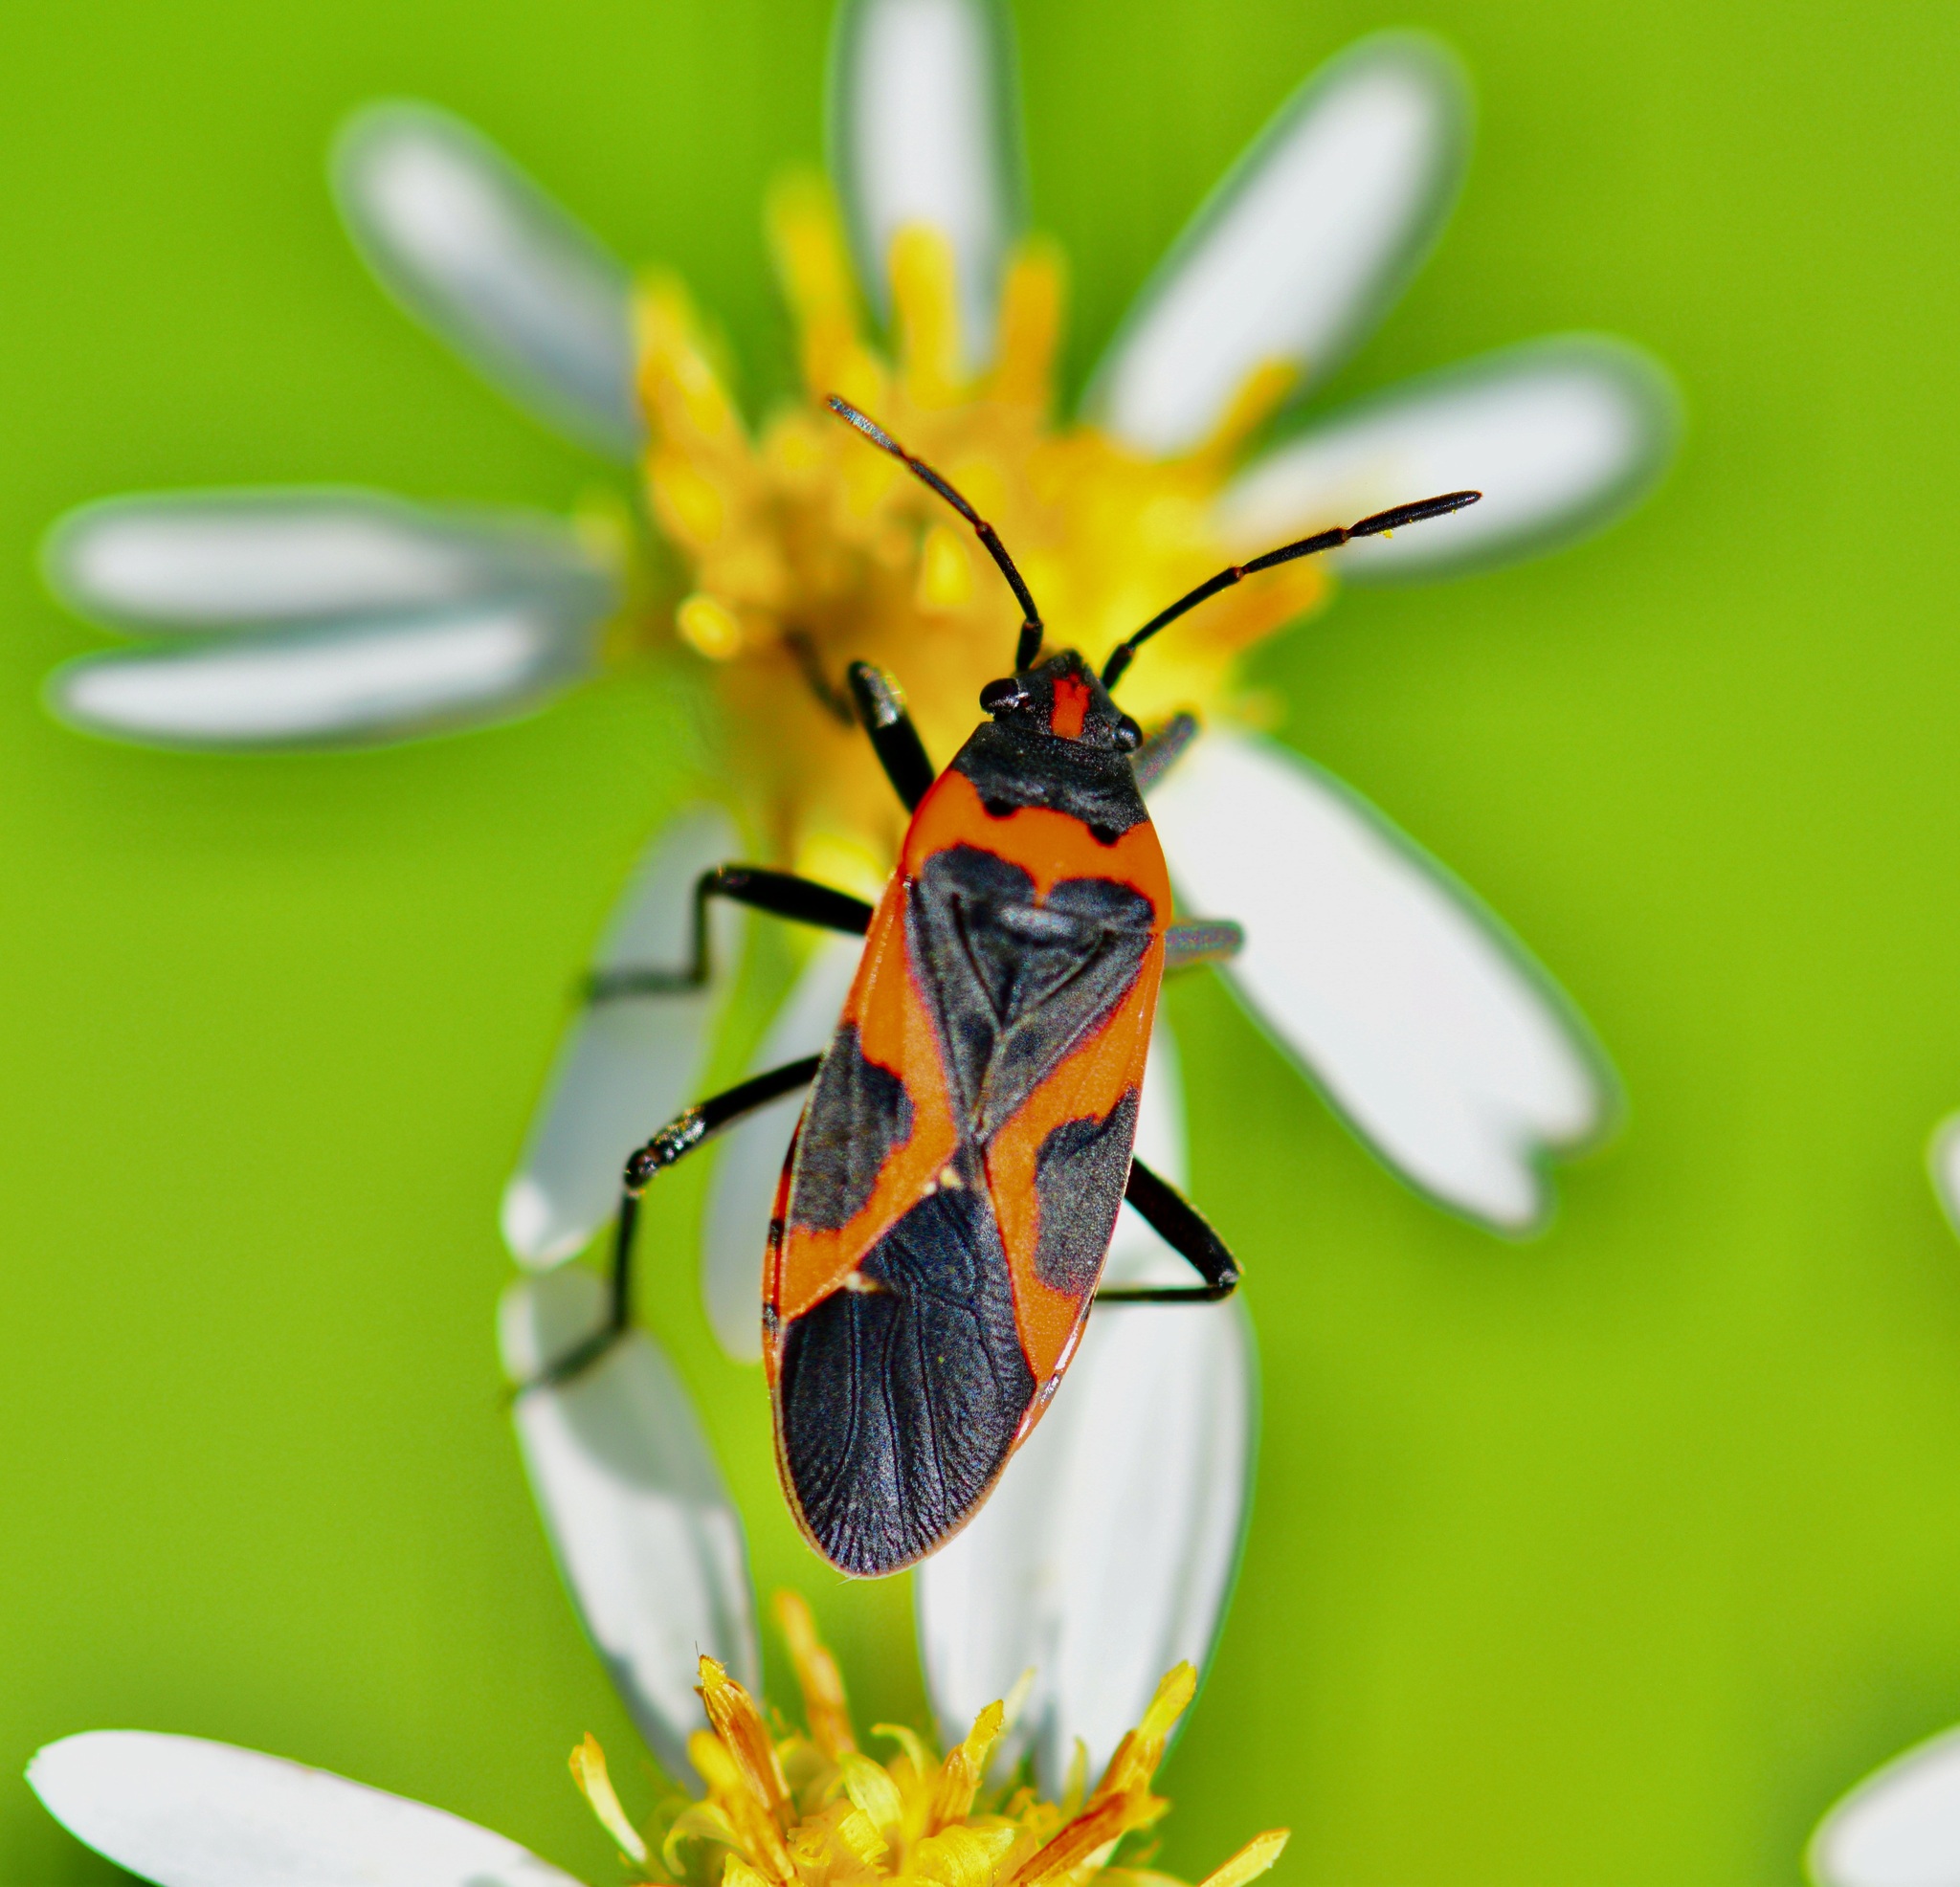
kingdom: Animalia
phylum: Arthropoda
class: Insecta
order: Hemiptera
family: Lygaeidae
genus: Lygaeus
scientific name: Lygaeus kalmii
